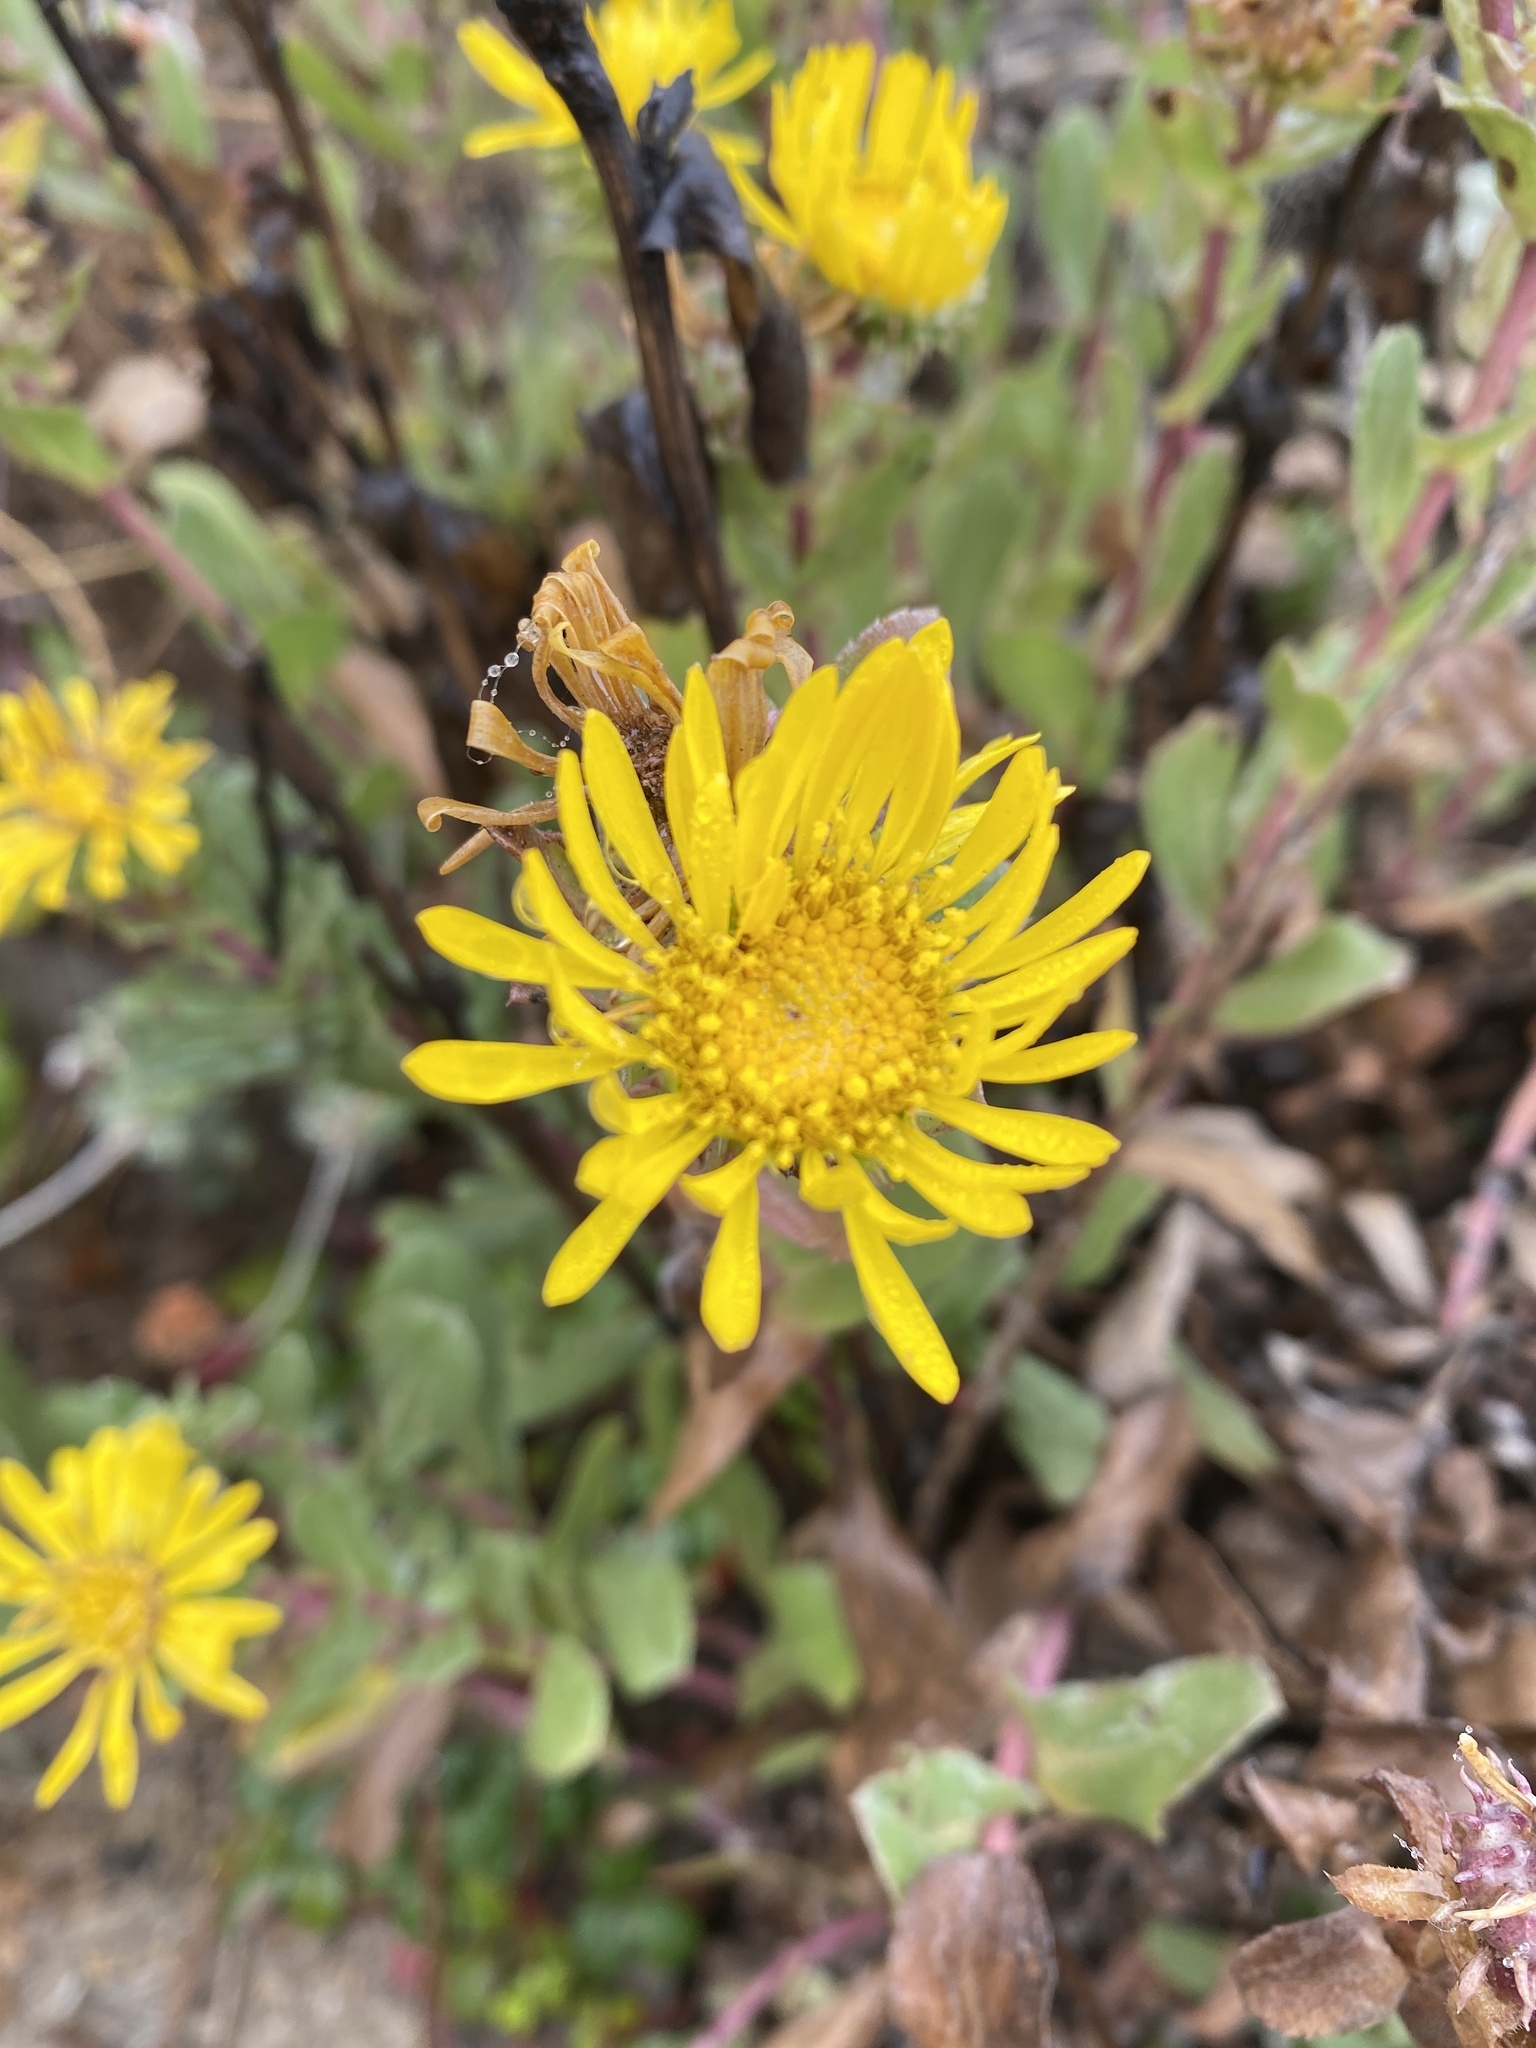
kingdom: Plantae
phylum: Tracheophyta
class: Magnoliopsida
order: Asterales
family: Asteraceae
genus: Grindelia
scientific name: Grindelia hirsutula
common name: Hairy gumweed
